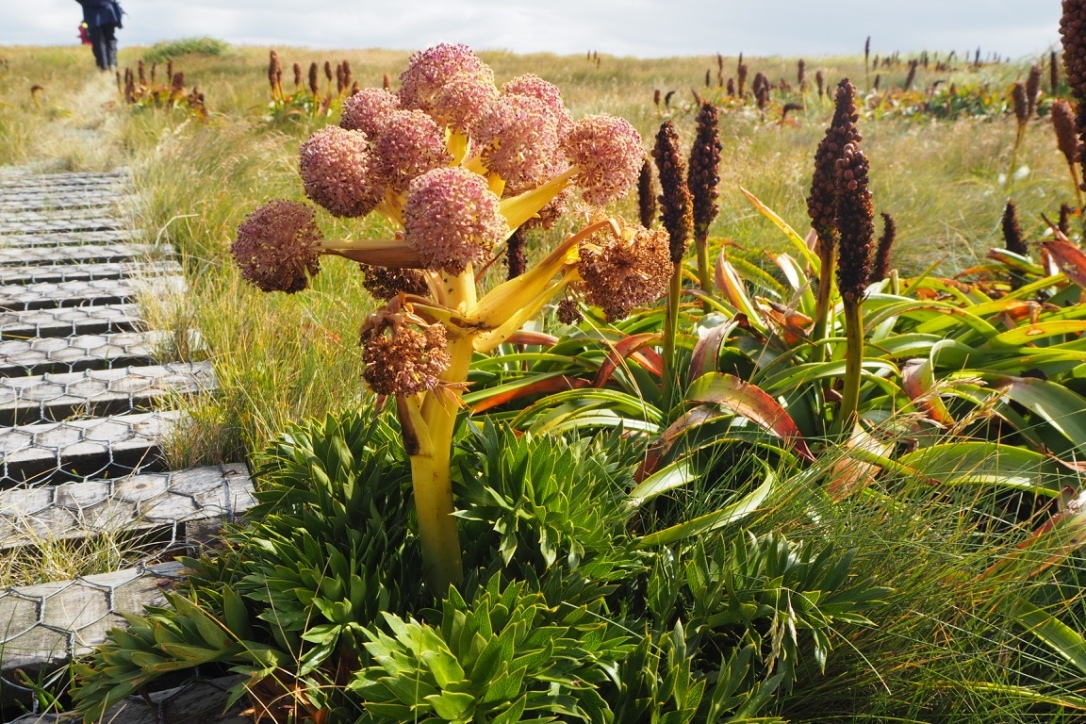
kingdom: Plantae
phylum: Tracheophyta
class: Magnoliopsida
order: Apiales
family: Apiaceae
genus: Anisotome
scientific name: Anisotome latifolia
